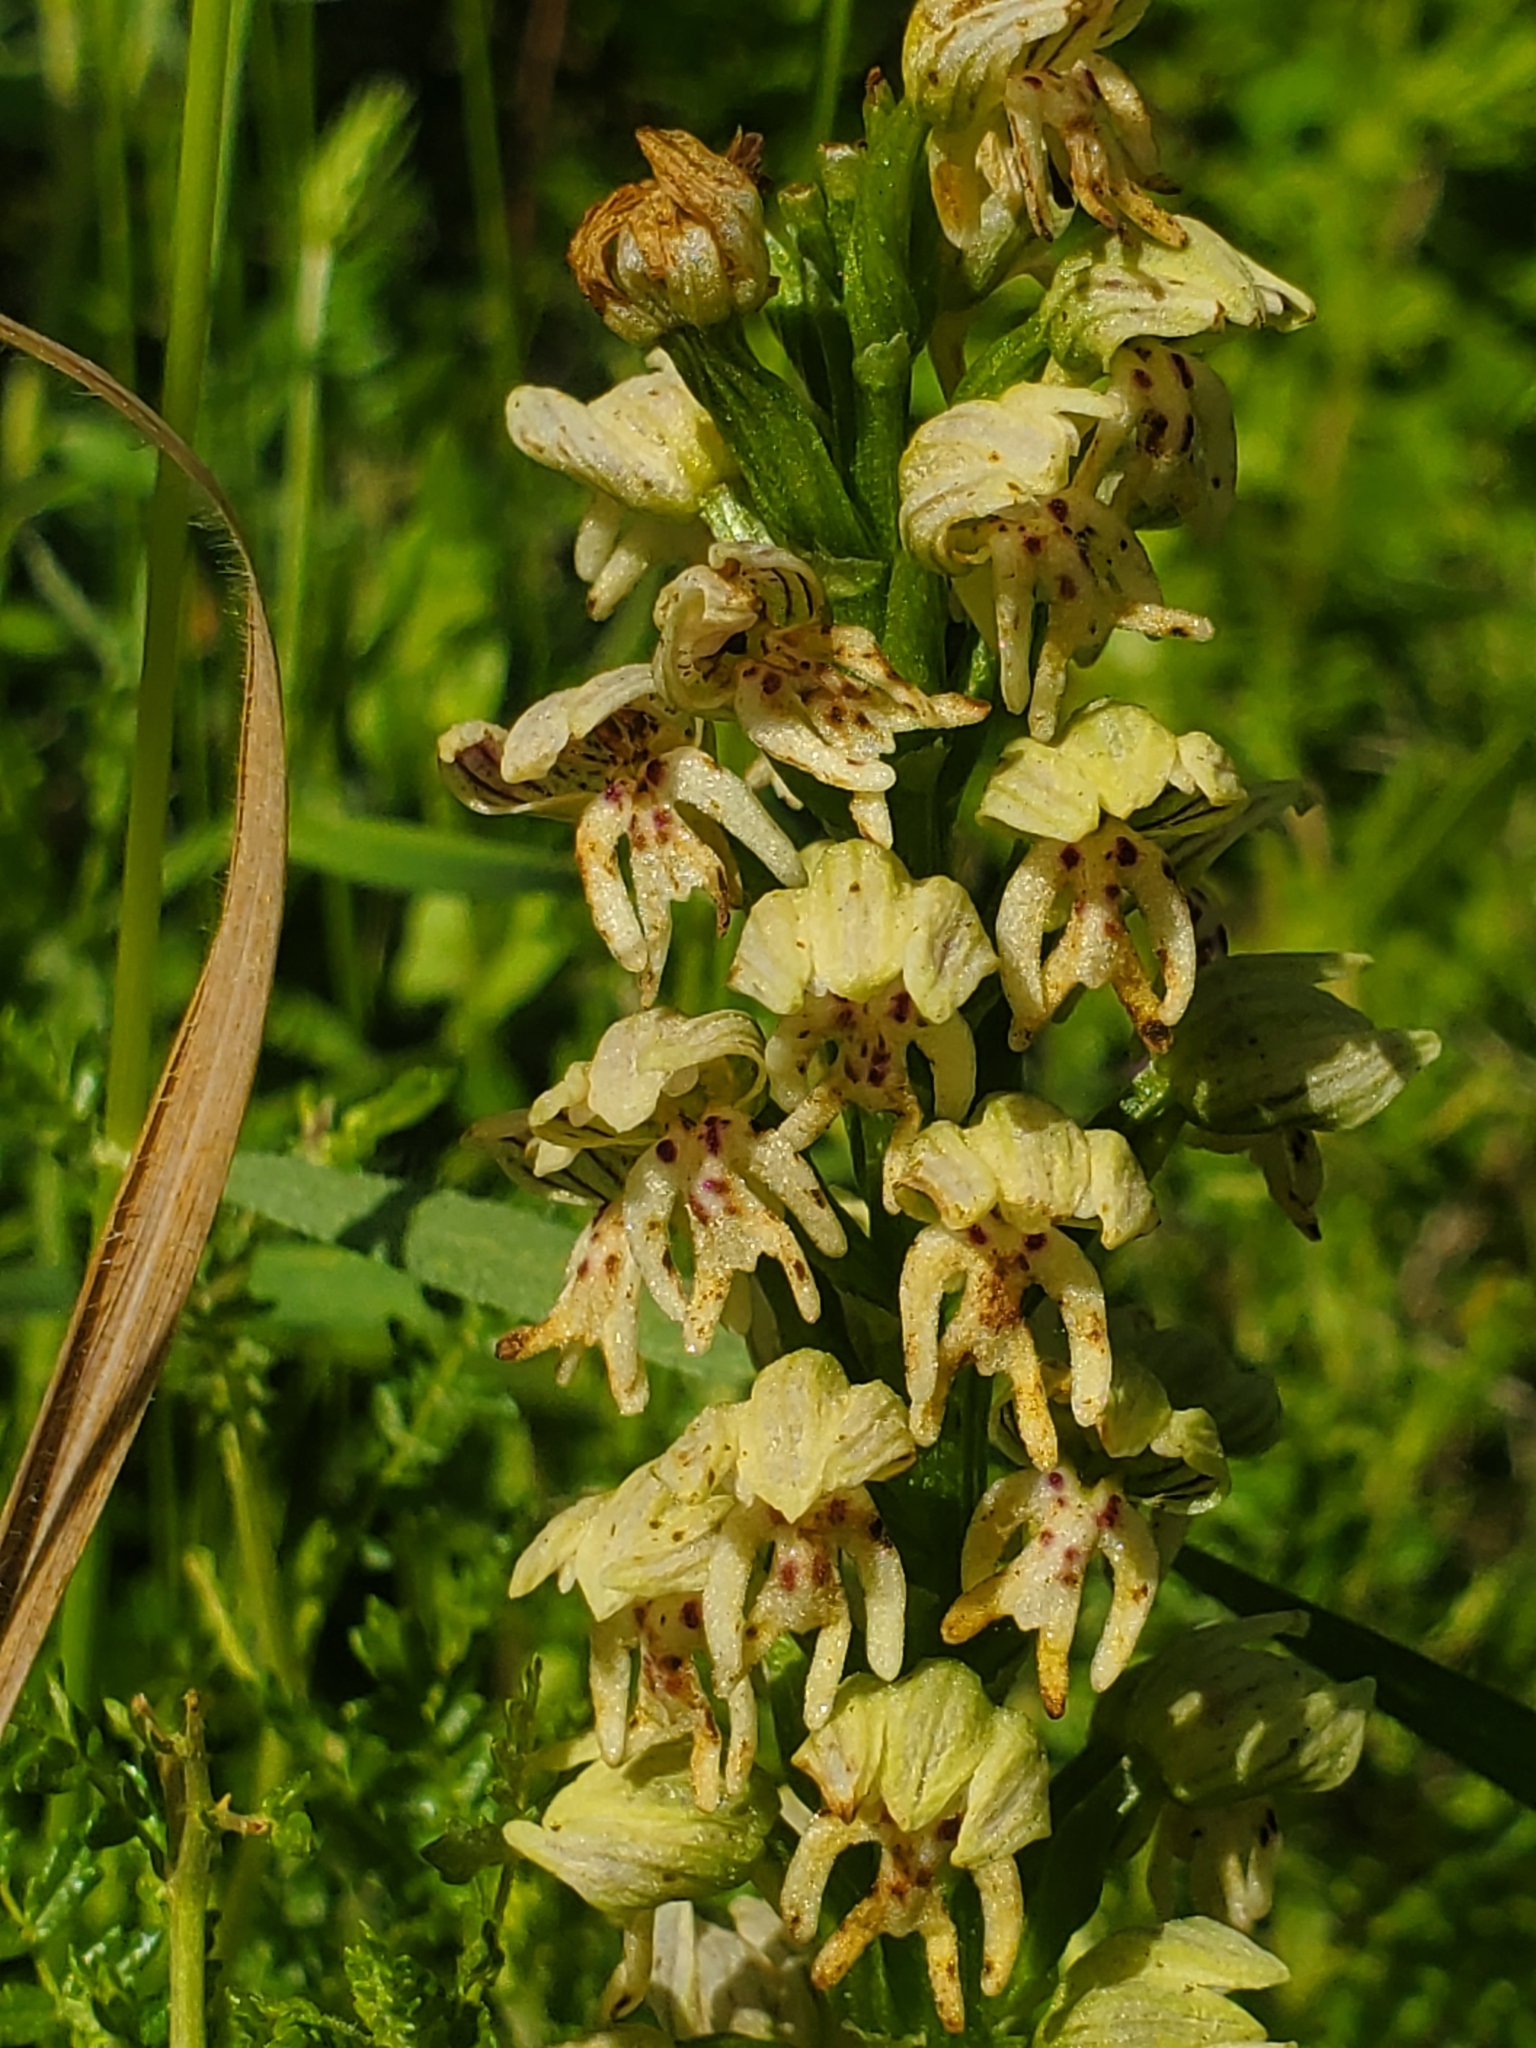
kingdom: Plantae
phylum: Tracheophyta
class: Liliopsida
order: Asparagales
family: Orchidaceae
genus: Orchis
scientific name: Orchis galilaea
